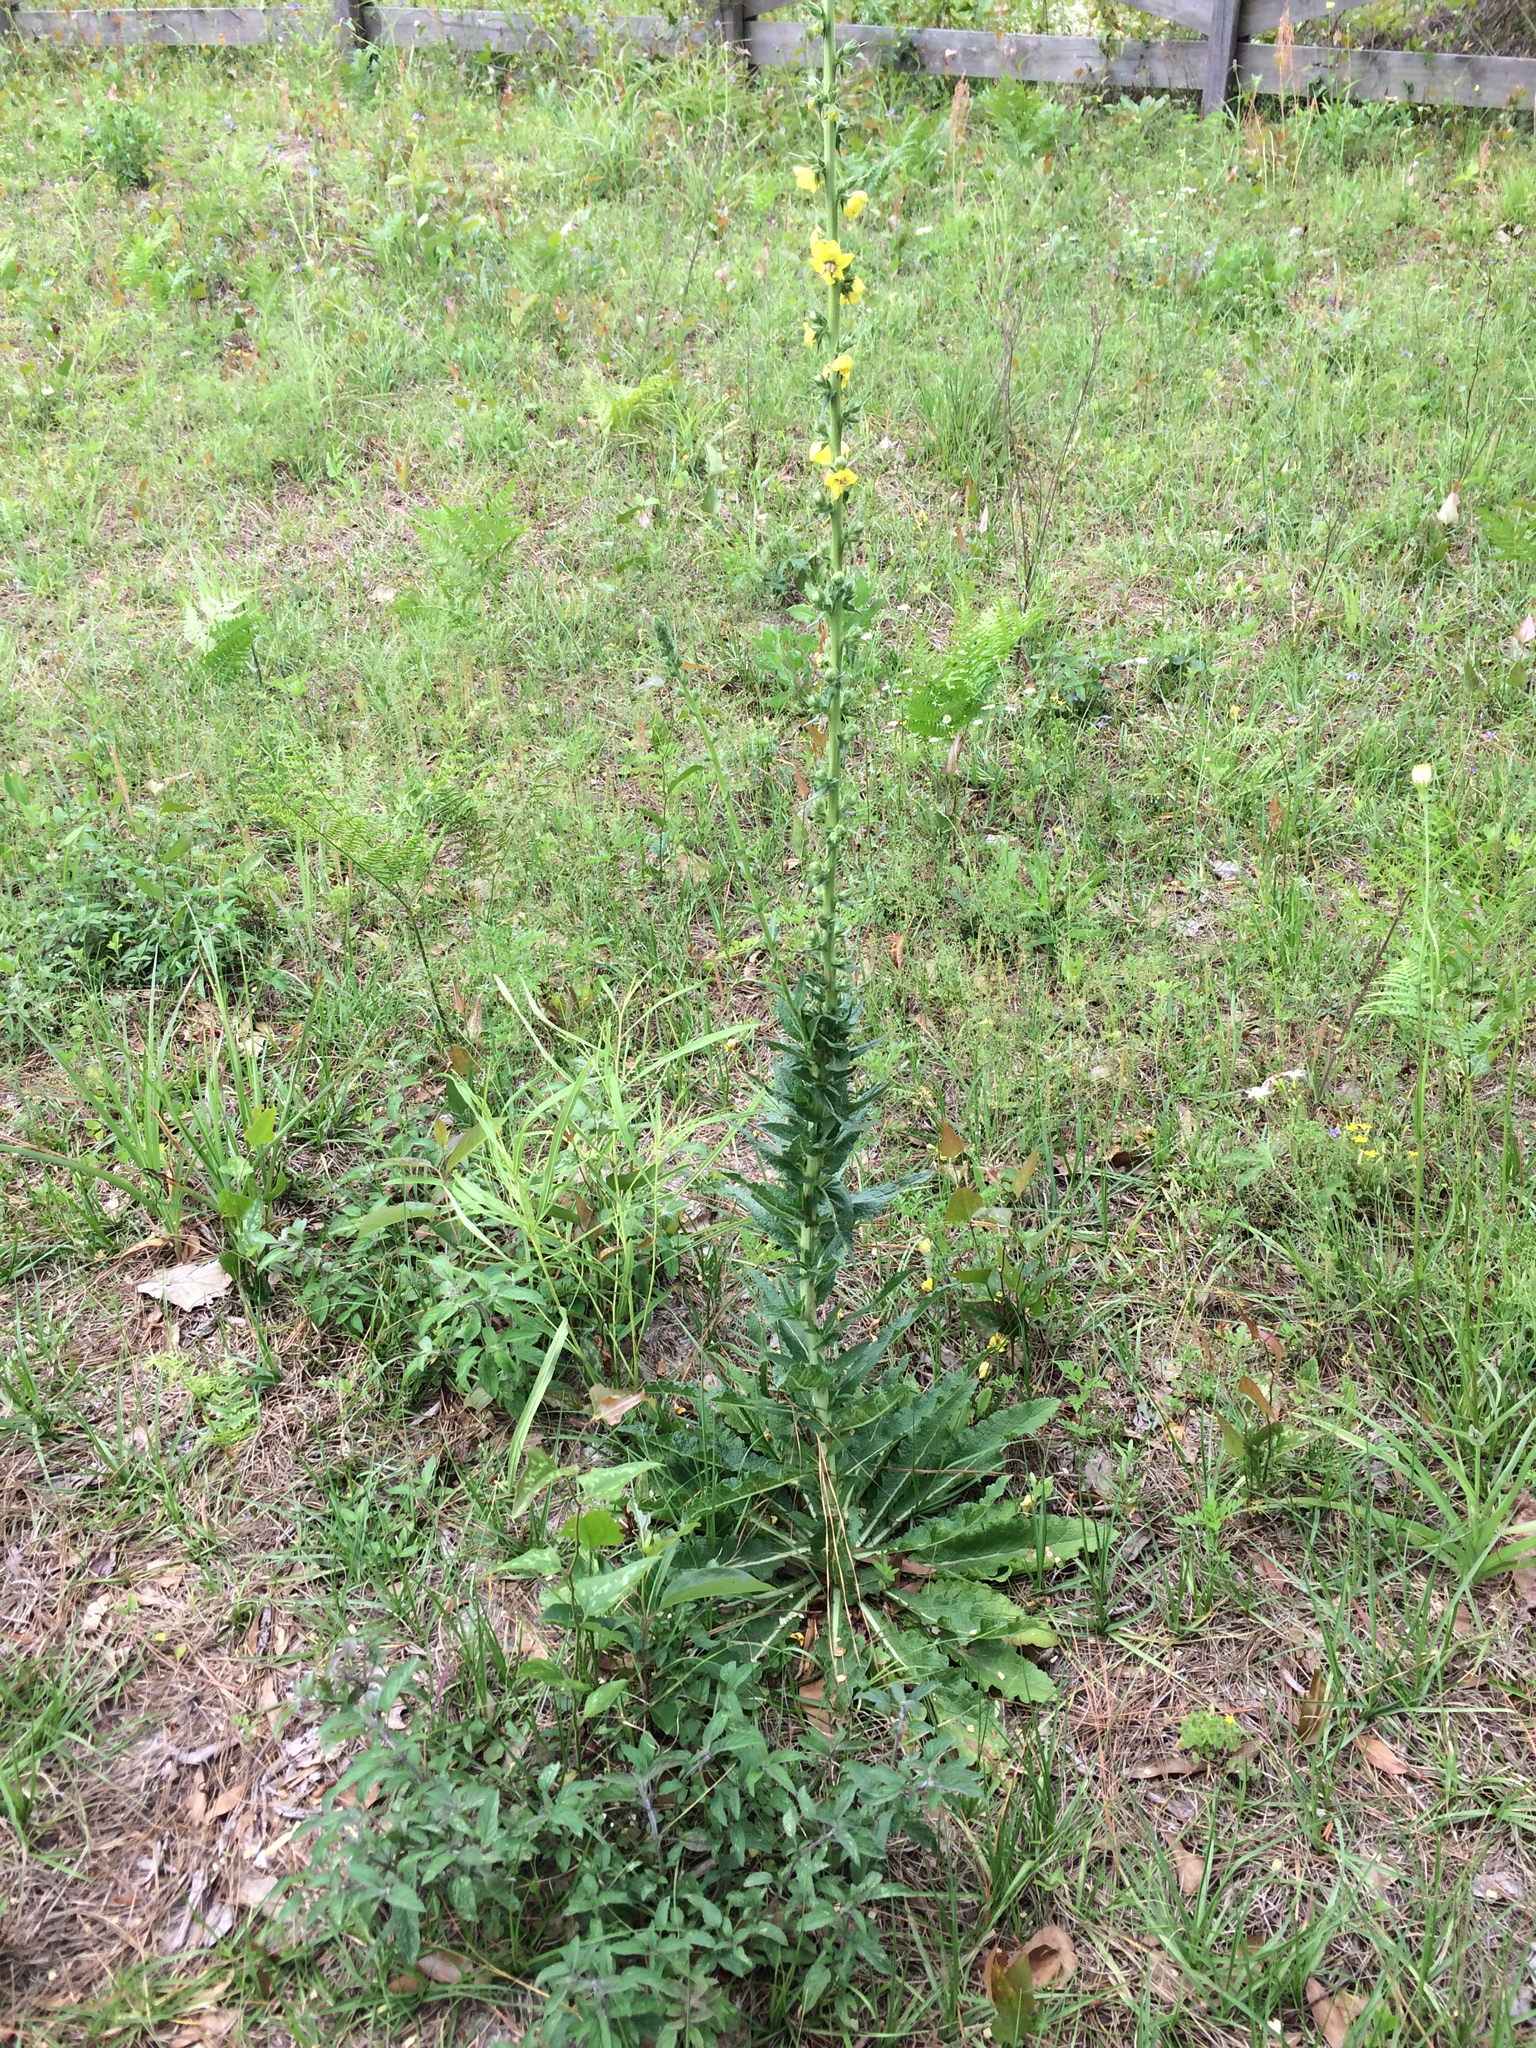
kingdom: Plantae
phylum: Tracheophyta
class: Magnoliopsida
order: Lamiales
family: Scrophulariaceae
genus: Verbascum
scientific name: Verbascum virgatum
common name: Twiggy mullein
